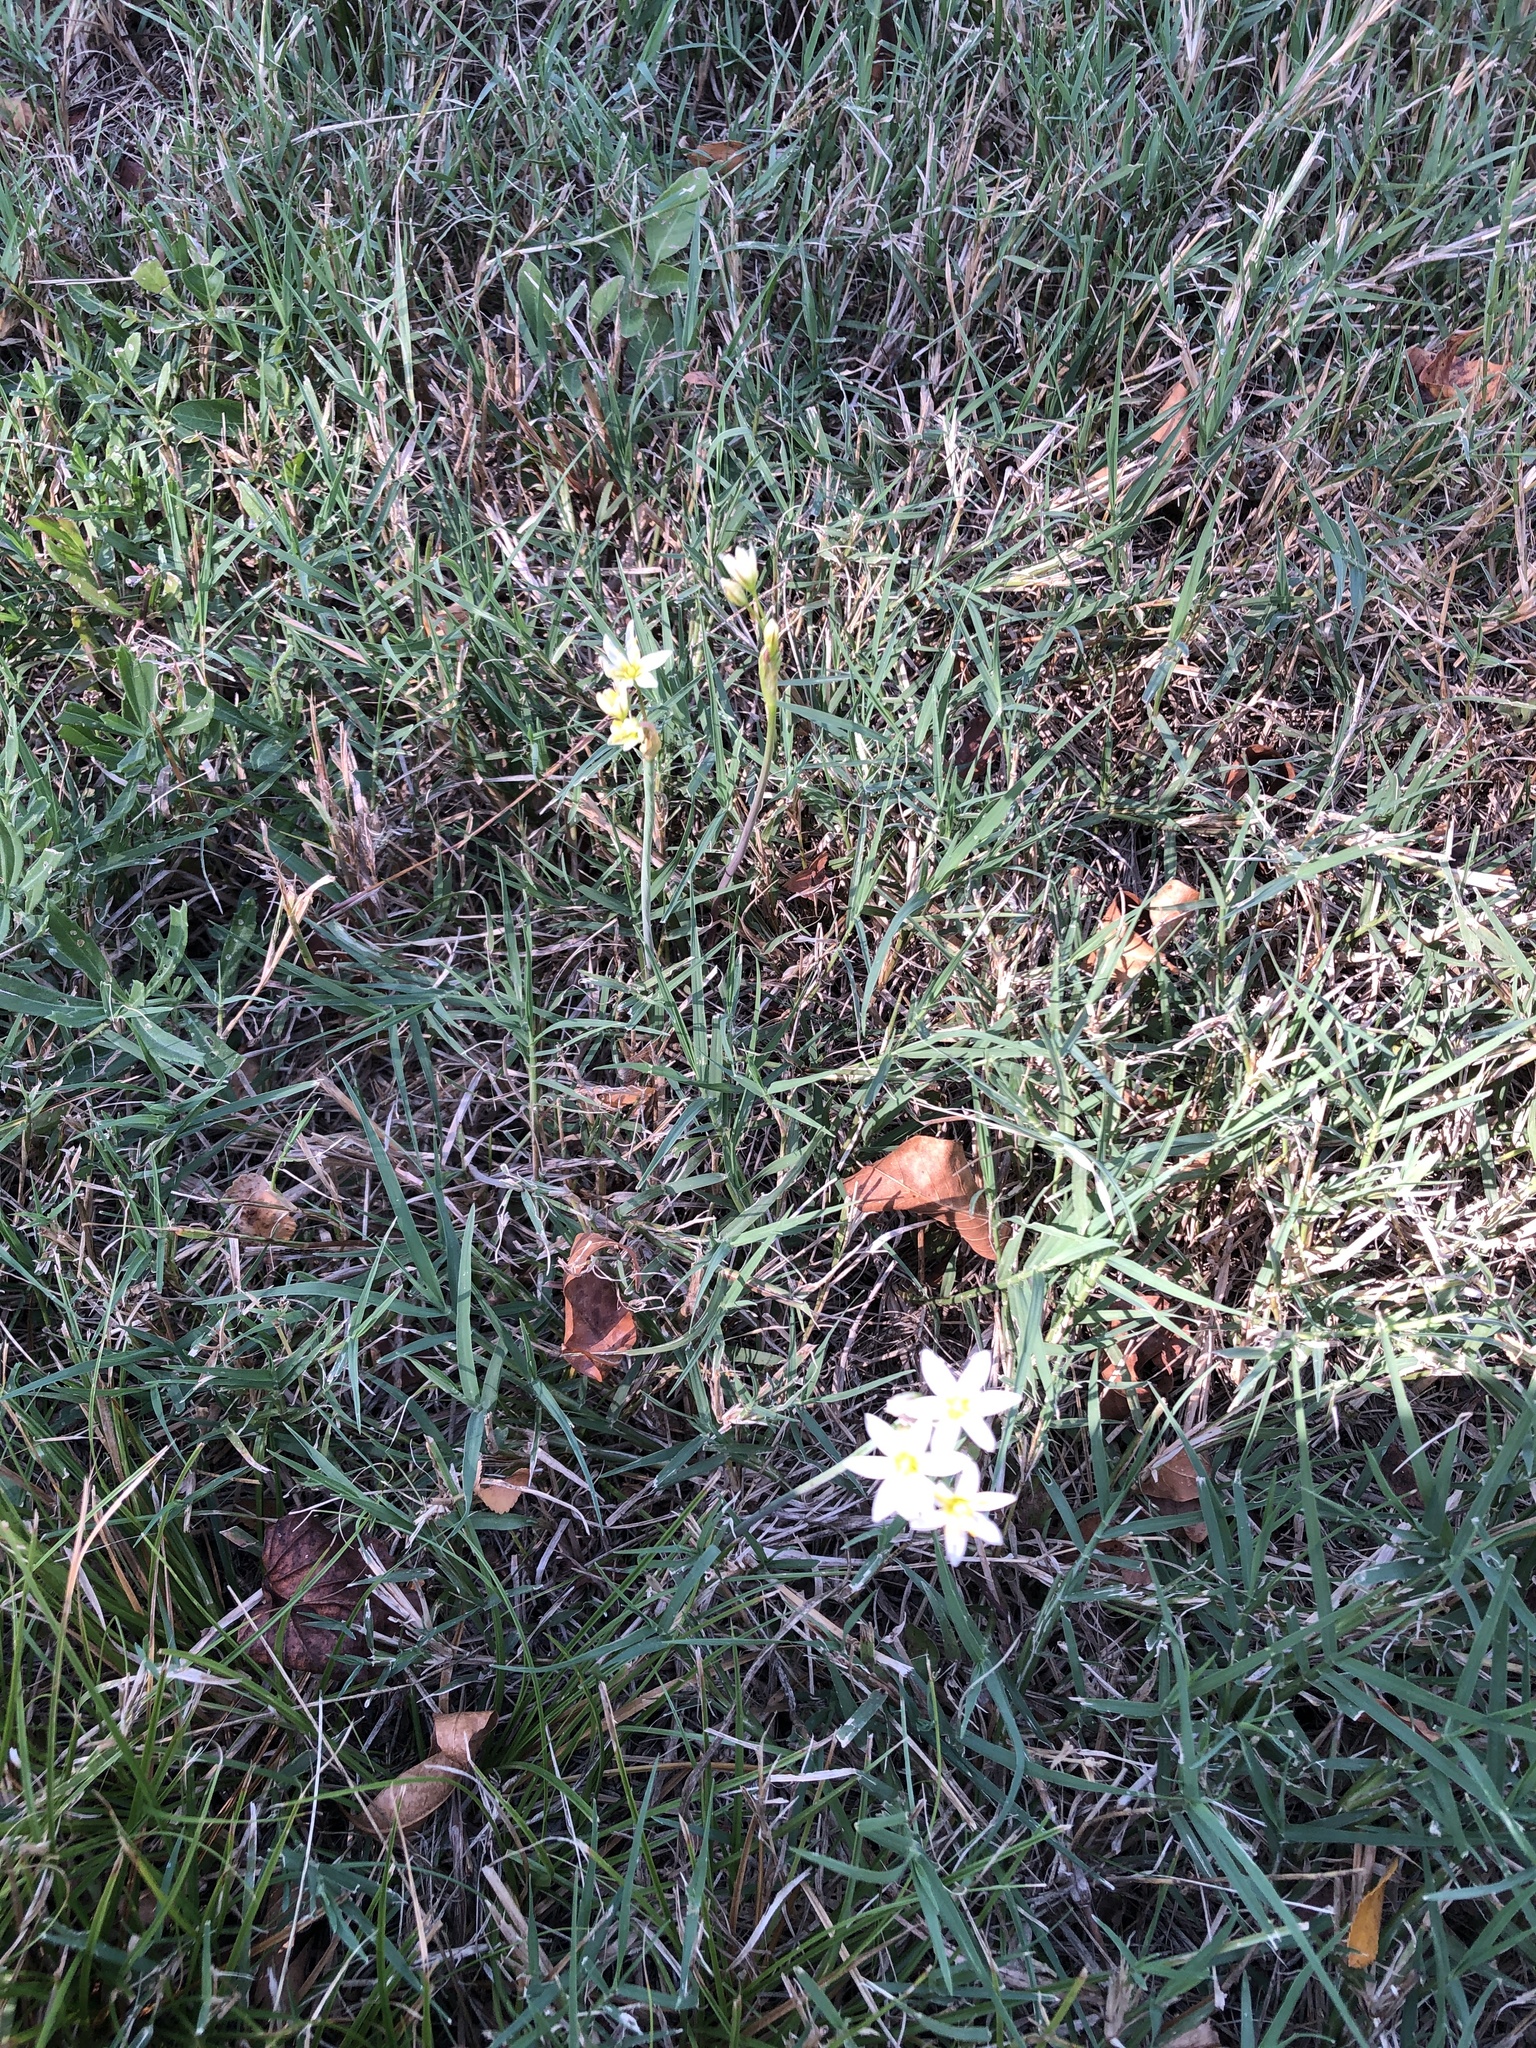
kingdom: Plantae
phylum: Tracheophyta
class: Liliopsida
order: Asparagales
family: Amaryllidaceae
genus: Nothoscordum
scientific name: Nothoscordum bivalve
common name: Crow-poison
